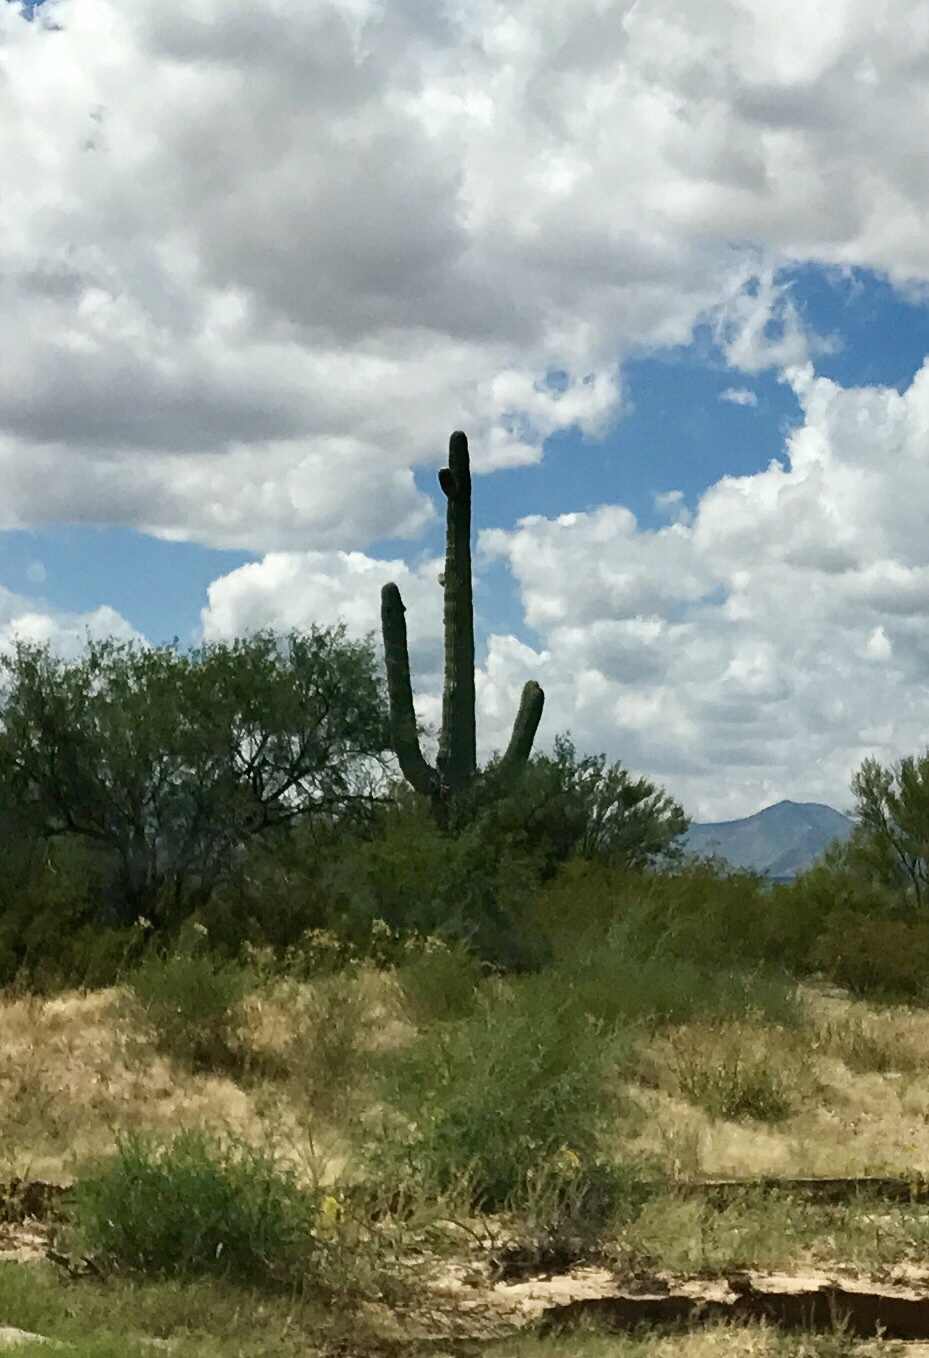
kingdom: Plantae
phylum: Tracheophyta
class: Magnoliopsida
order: Caryophyllales
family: Cactaceae
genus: Carnegiea
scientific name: Carnegiea gigantea
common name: Saguaro
